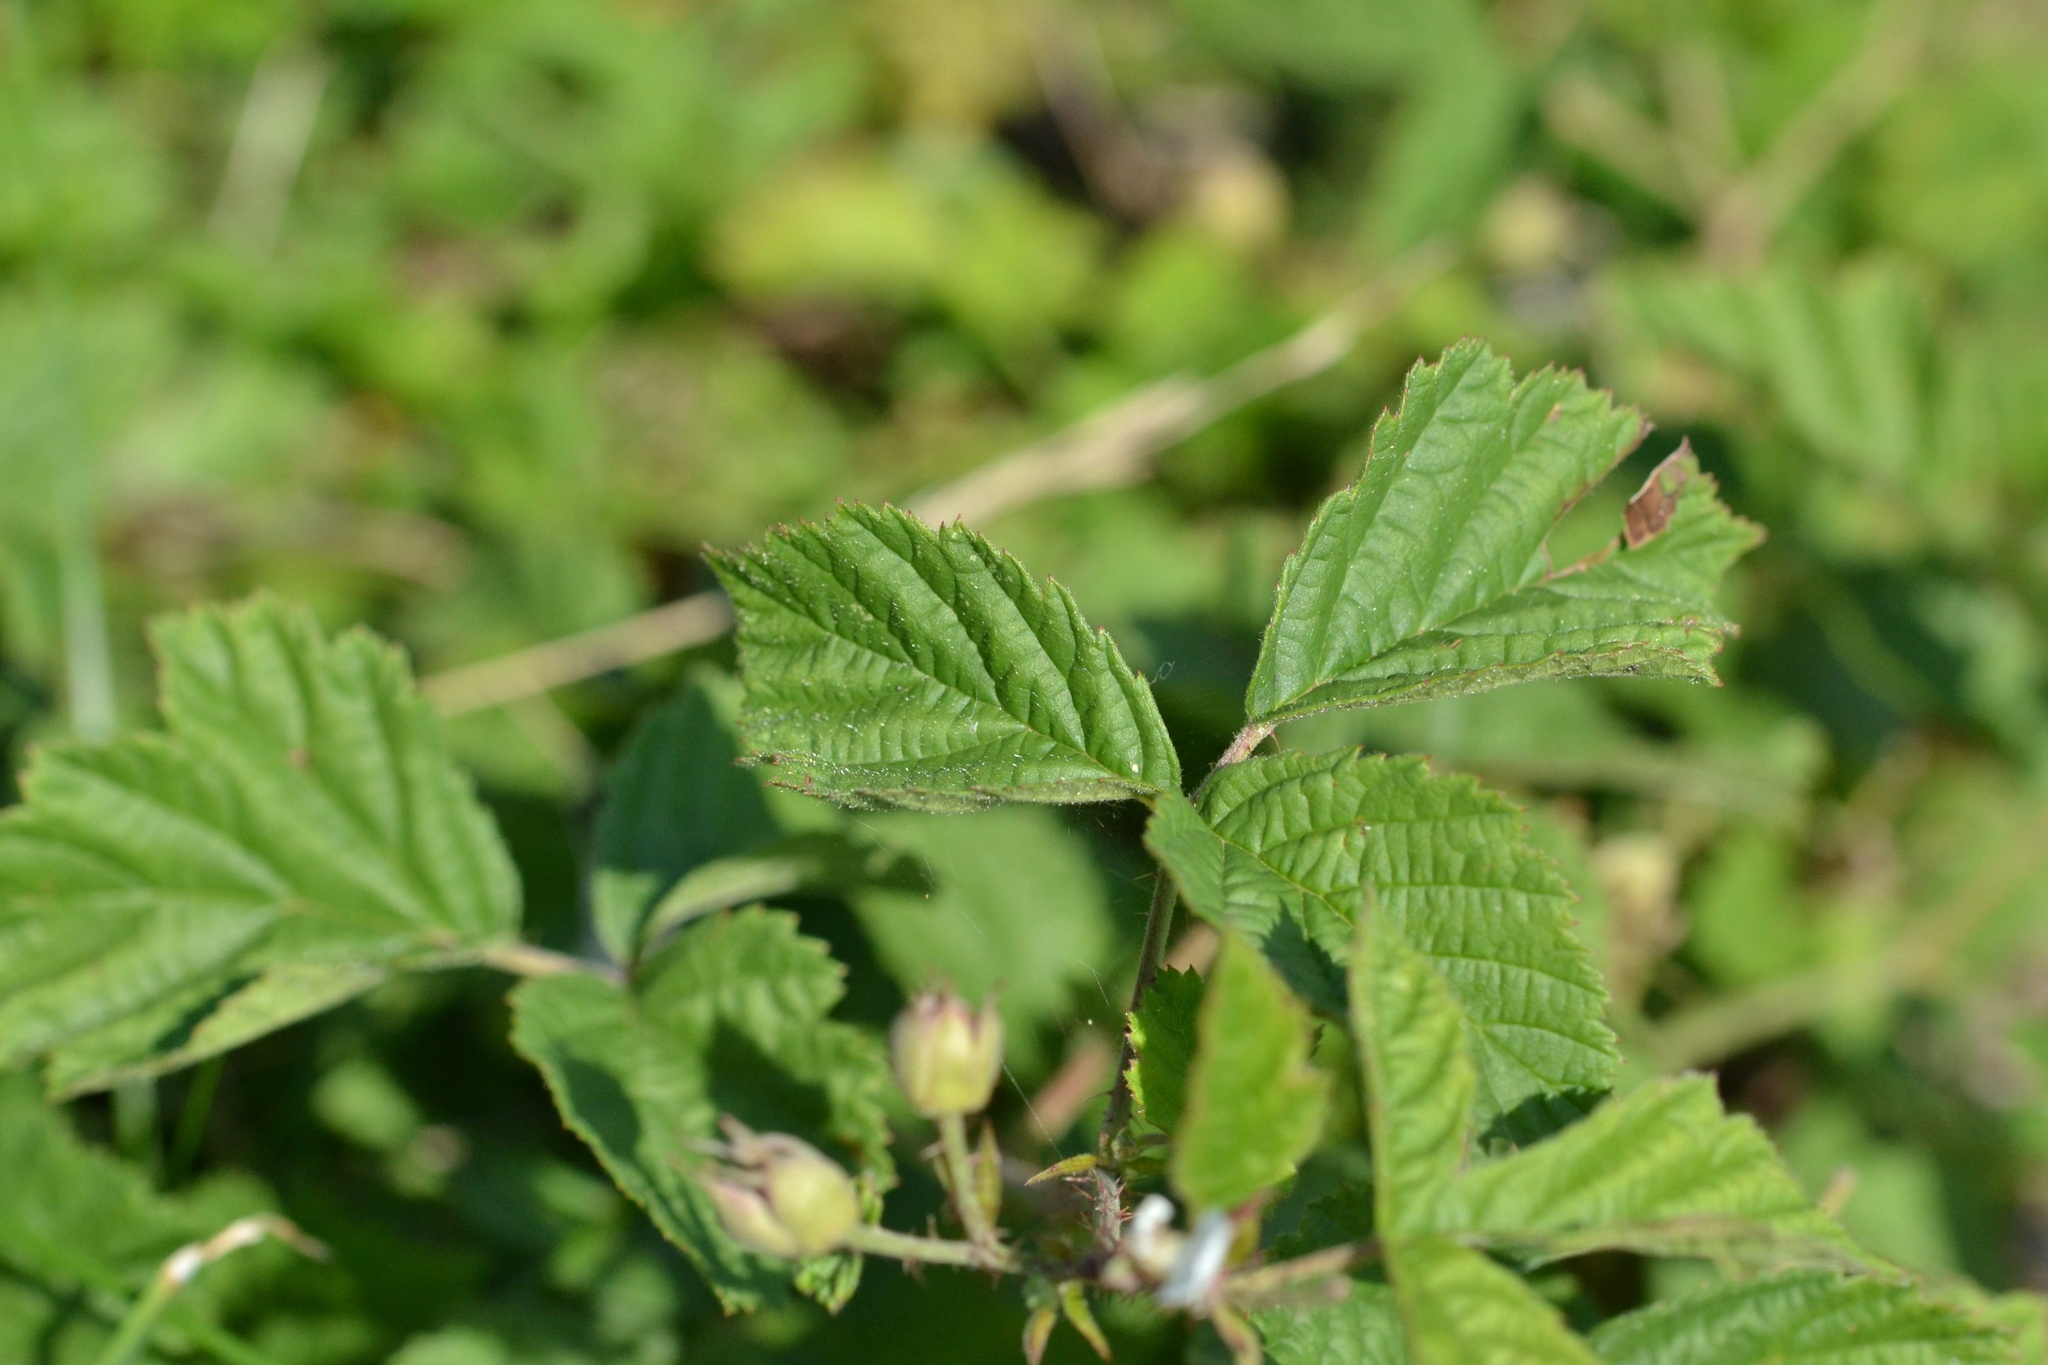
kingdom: Plantae
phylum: Tracheophyta
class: Magnoliopsida
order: Rosales
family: Rosaceae
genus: Rubus
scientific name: Rubus caesius
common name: Dewberry
